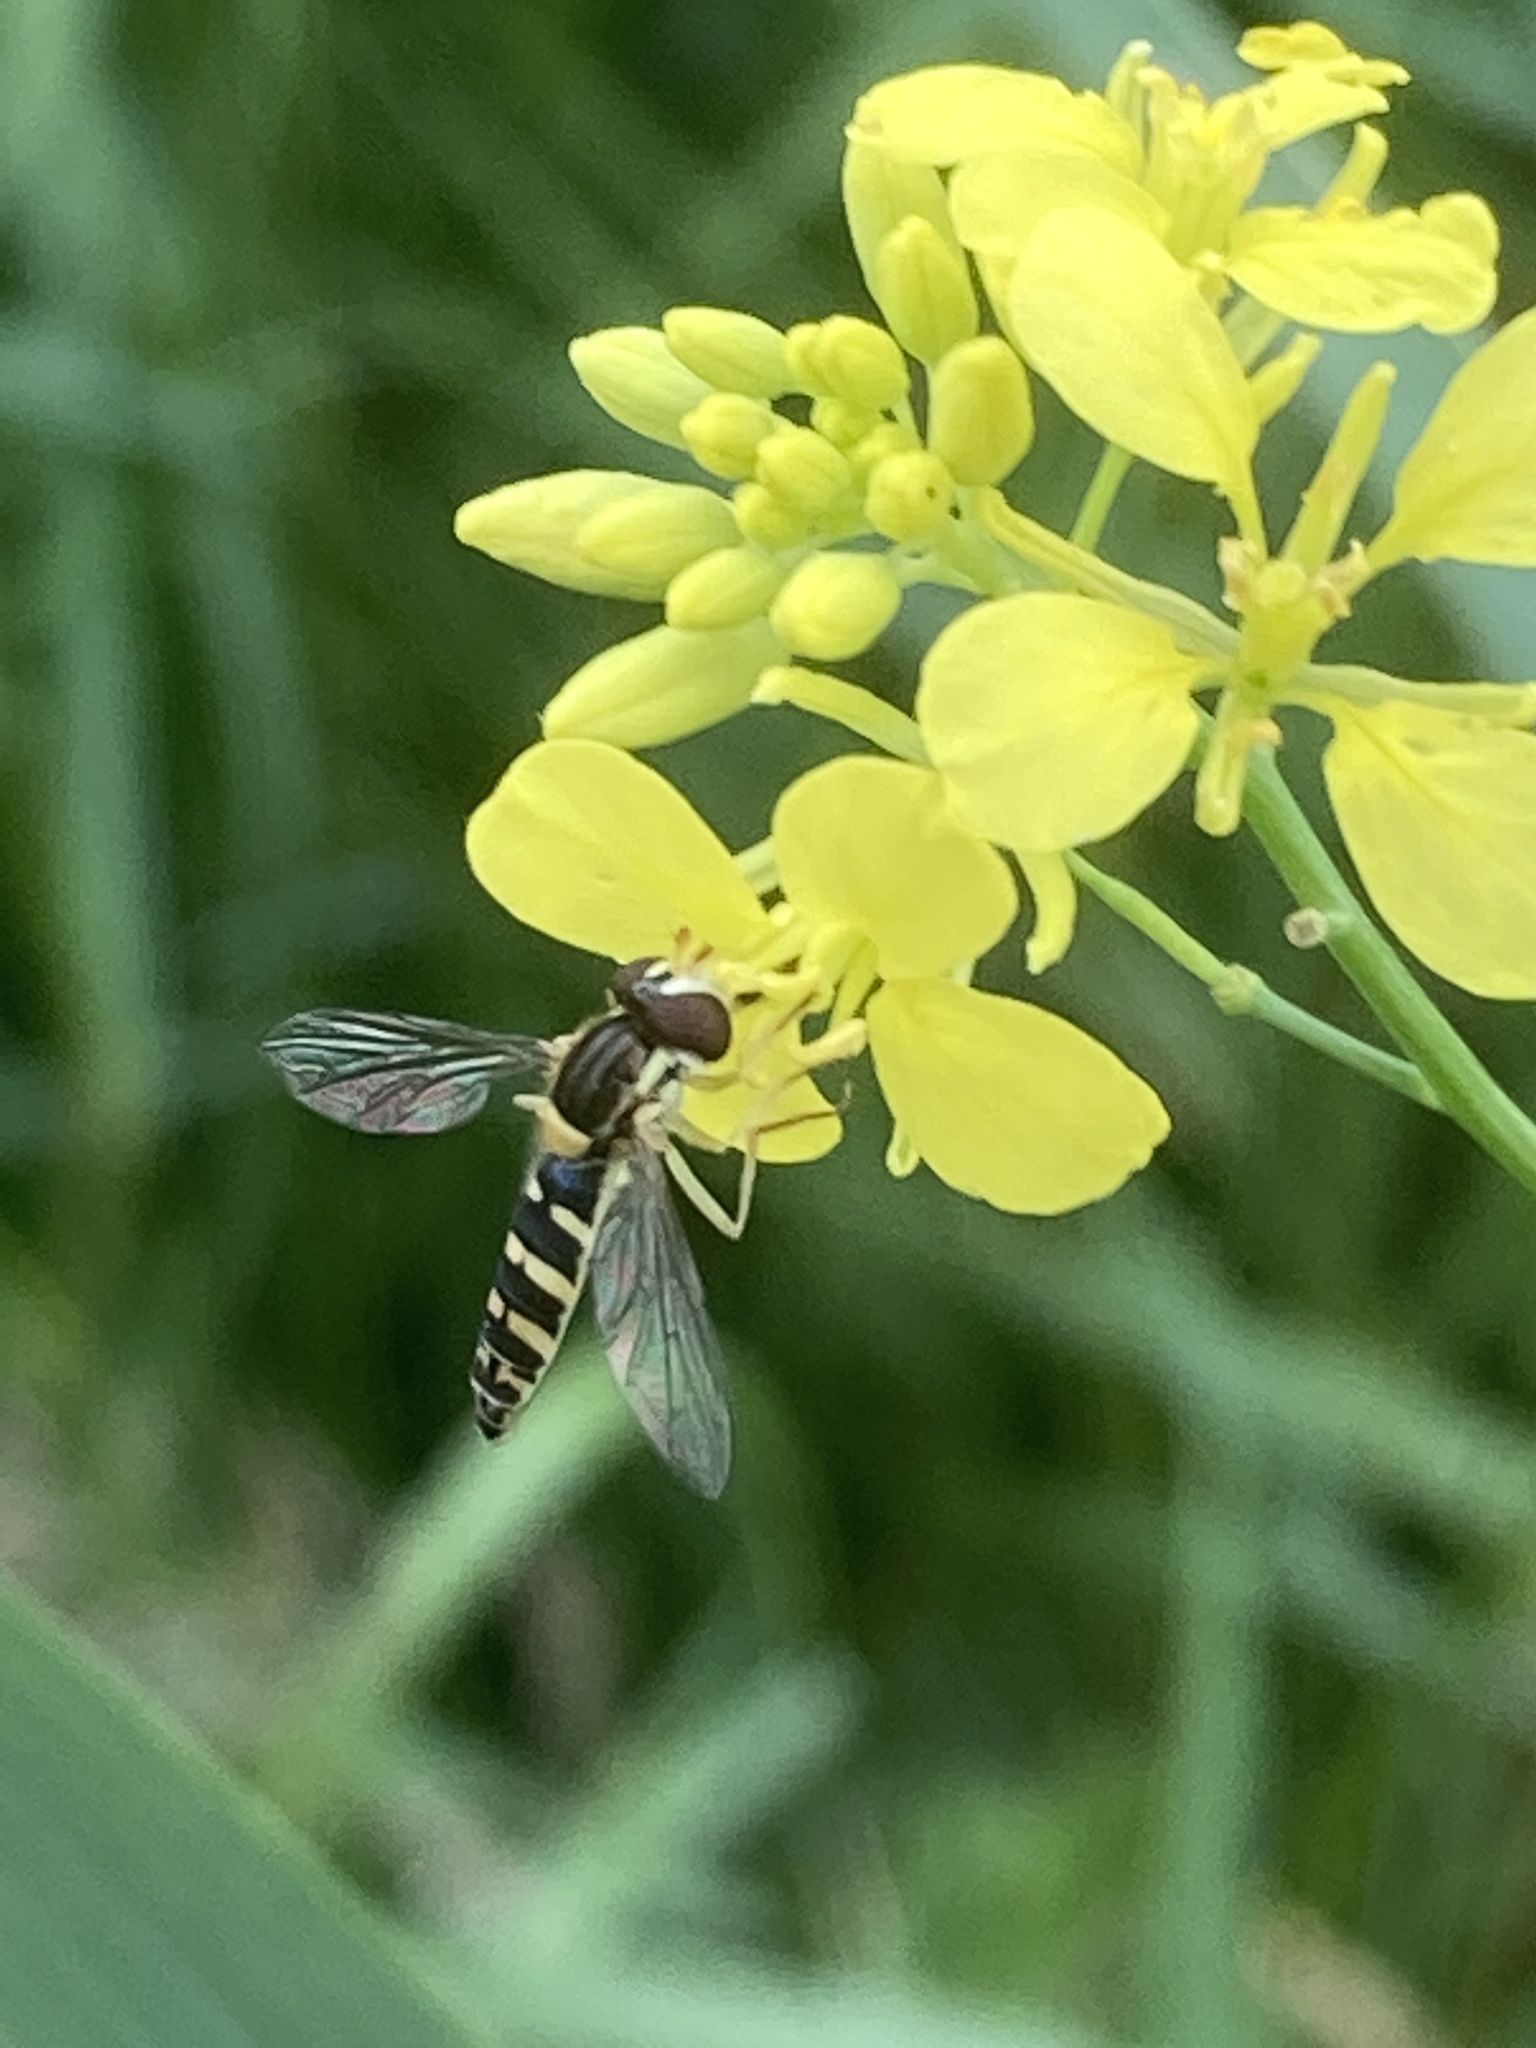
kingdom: Animalia
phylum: Arthropoda
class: Insecta
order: Diptera
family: Syrphidae
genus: Sphaerophoria
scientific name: Sphaerophoria
